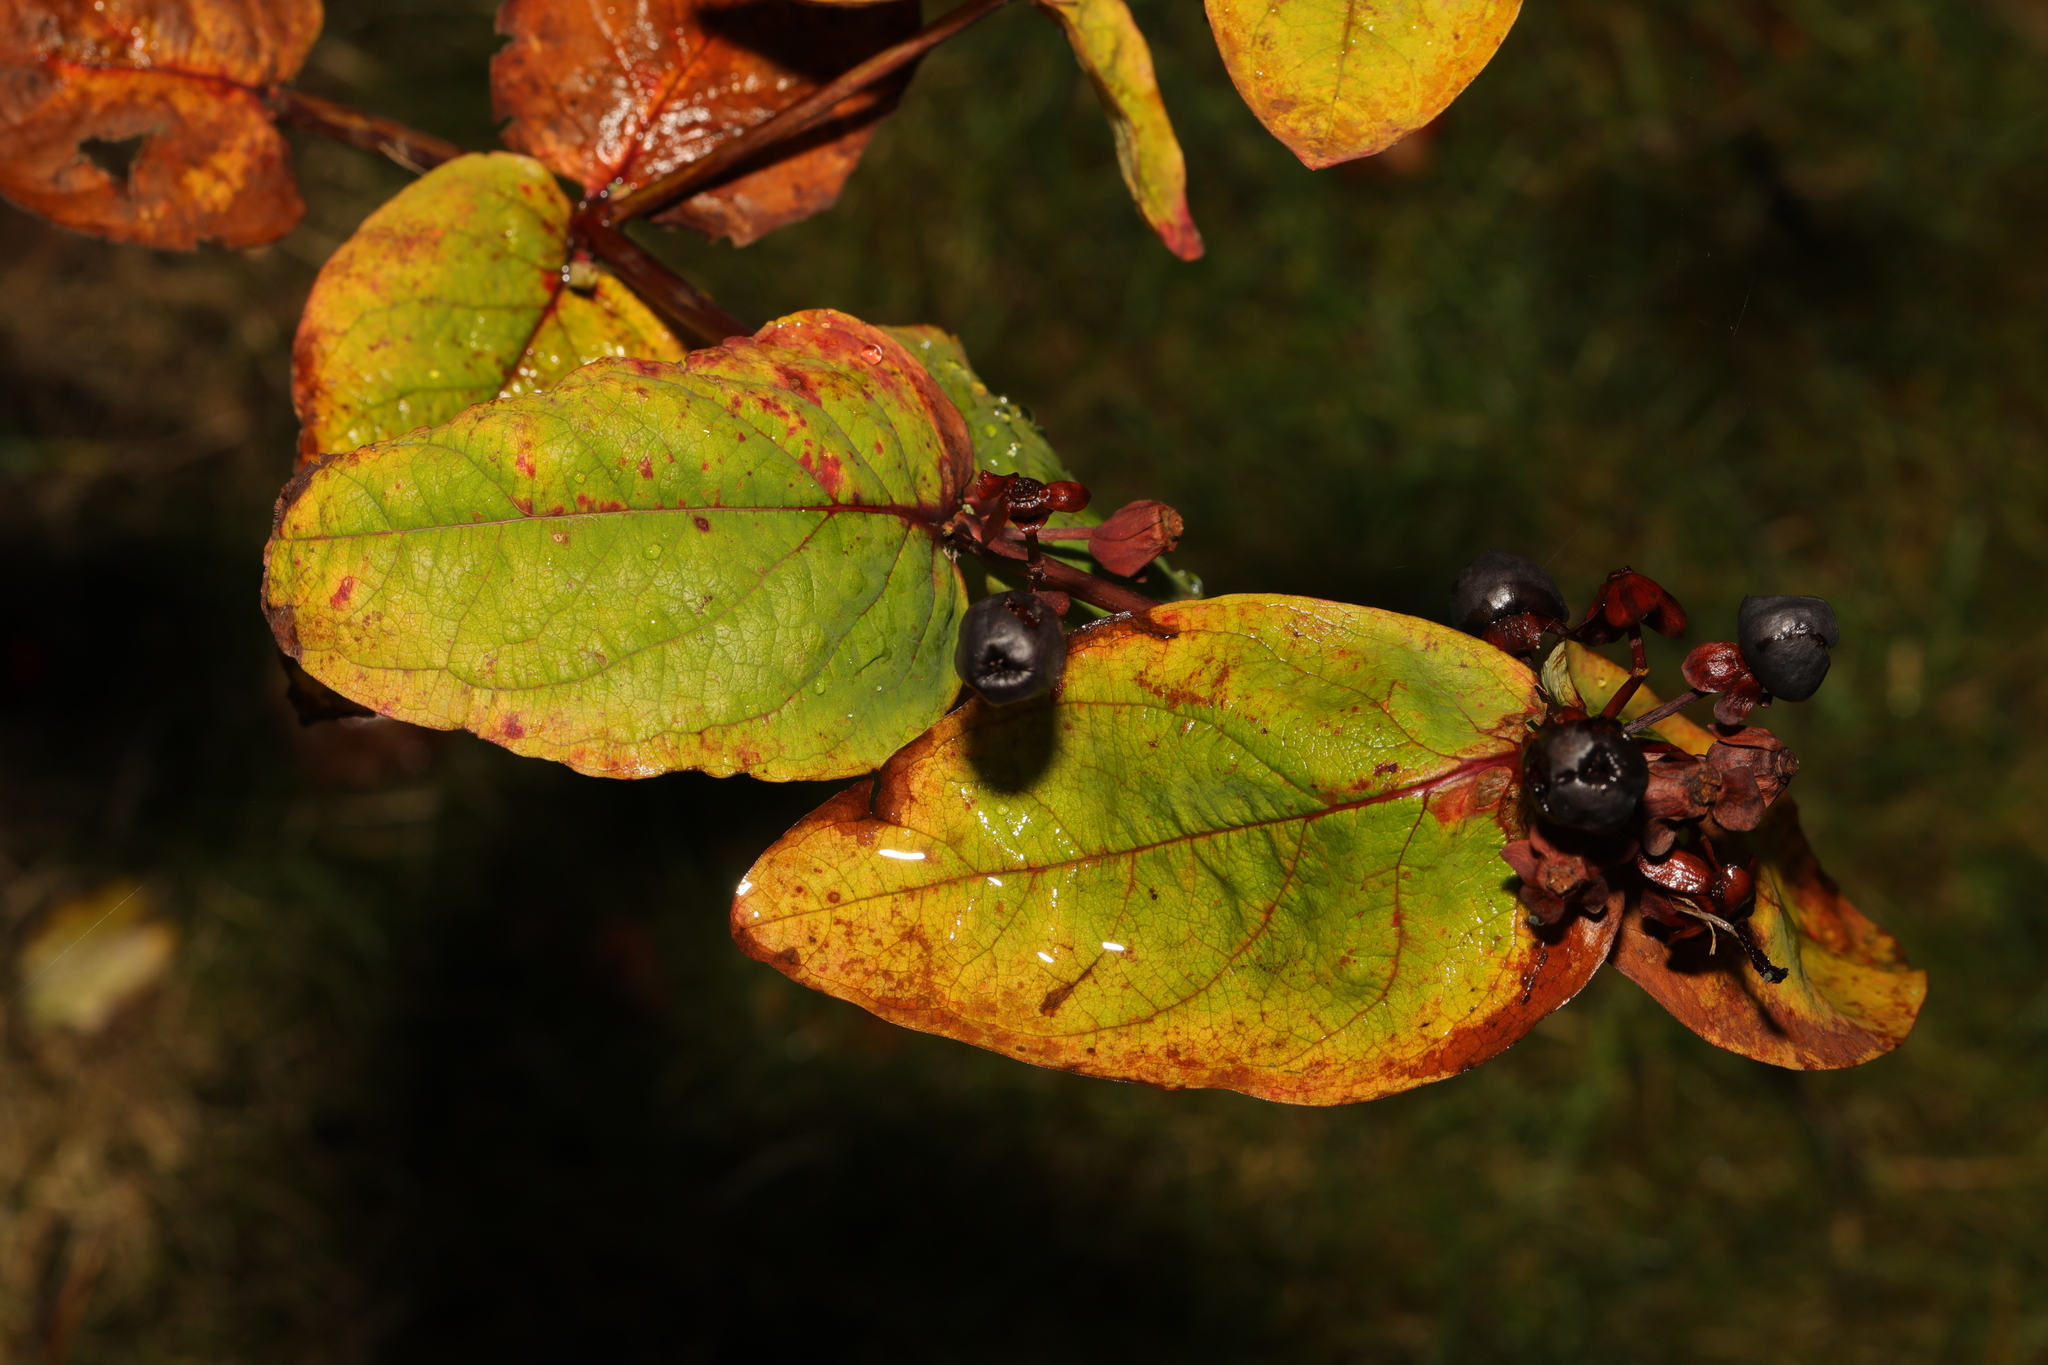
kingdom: Plantae
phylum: Tracheophyta
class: Magnoliopsida
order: Malpighiales
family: Hypericaceae
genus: Hypericum
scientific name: Hypericum androsaemum
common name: Sweet-amber
